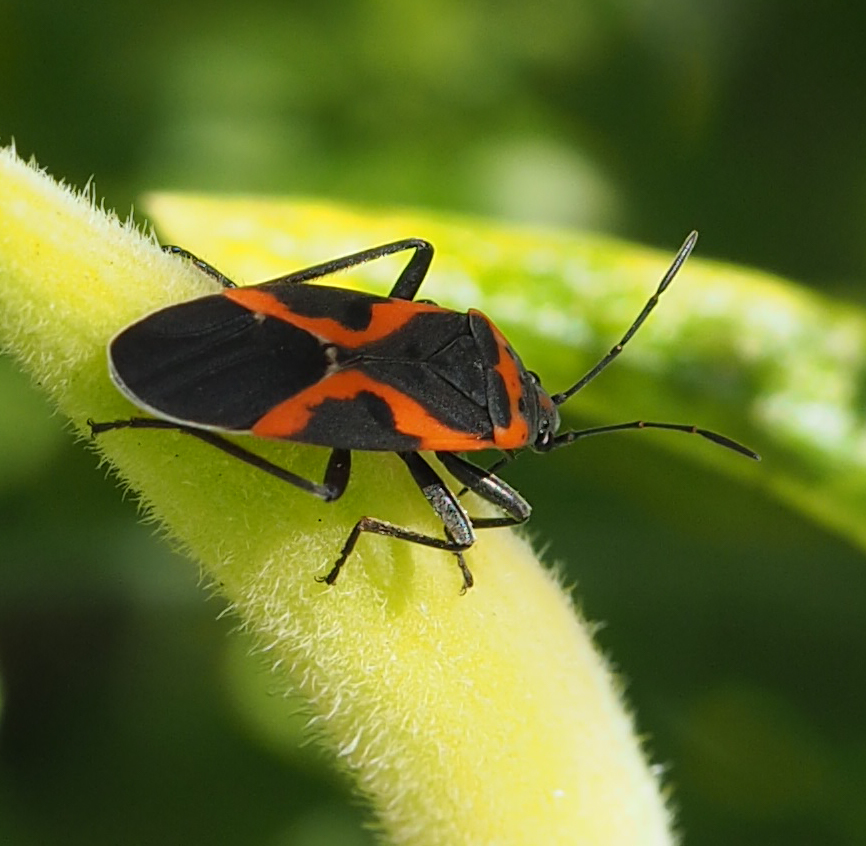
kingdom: Animalia
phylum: Arthropoda
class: Insecta
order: Hemiptera
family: Lygaeidae
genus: Lygaeus
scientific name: Lygaeus kalmii
